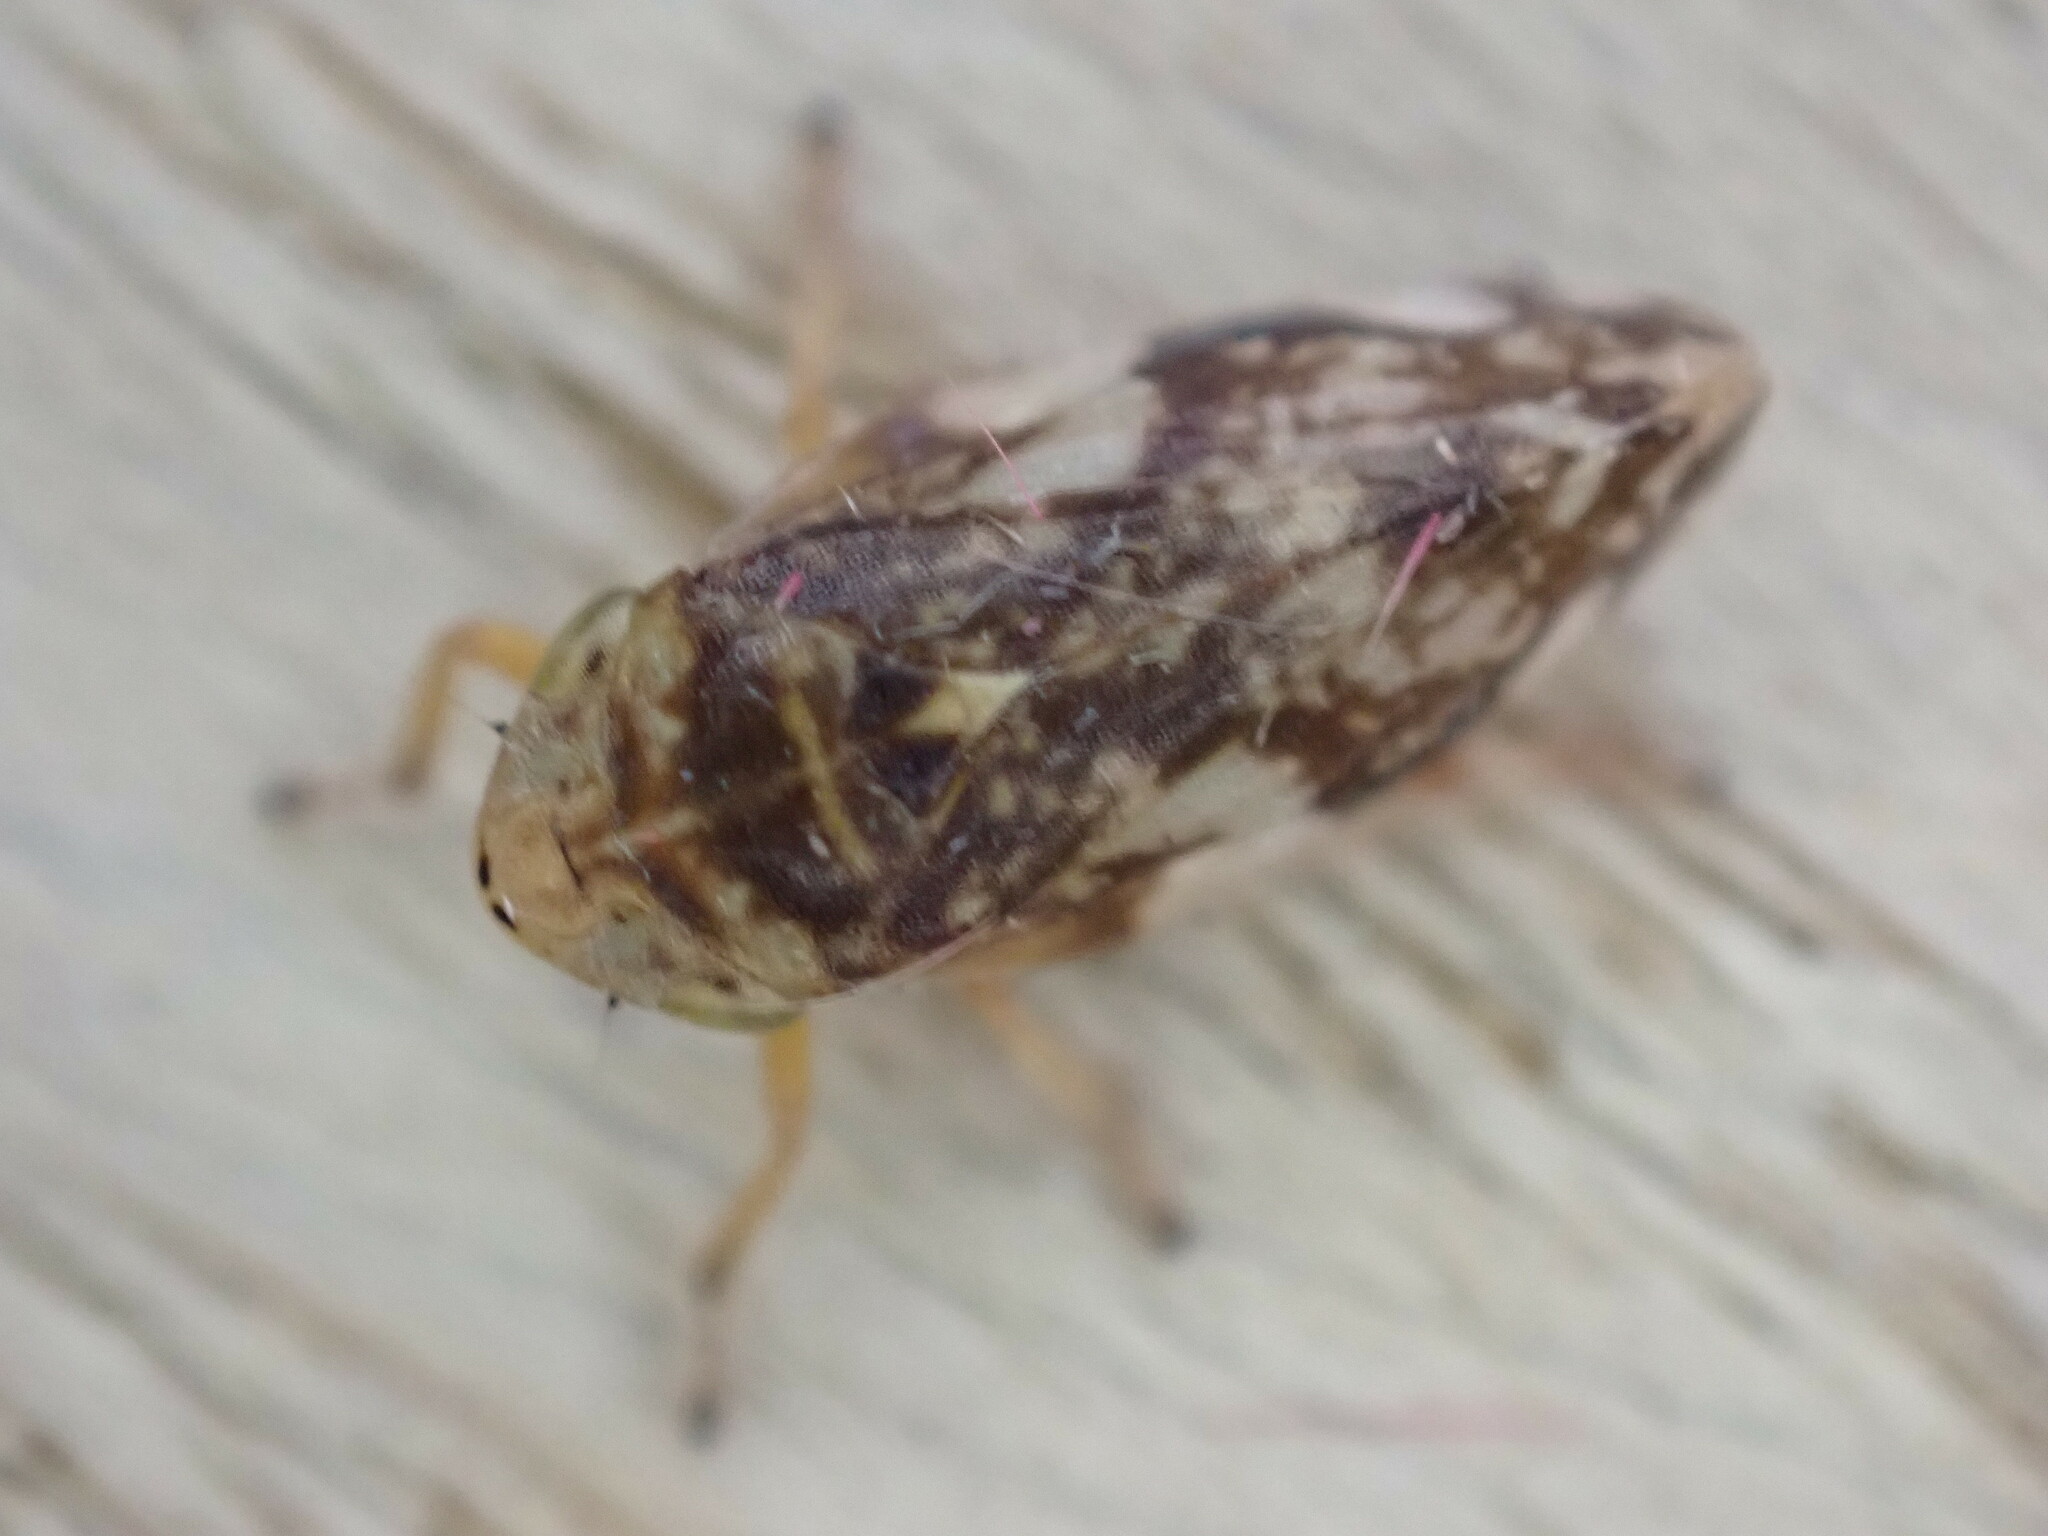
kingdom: Animalia
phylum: Arthropoda
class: Insecta
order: Hemiptera
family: Aphrophoridae
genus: Philaenus
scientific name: Philaenus spumarius
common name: Meadow spittlebug
